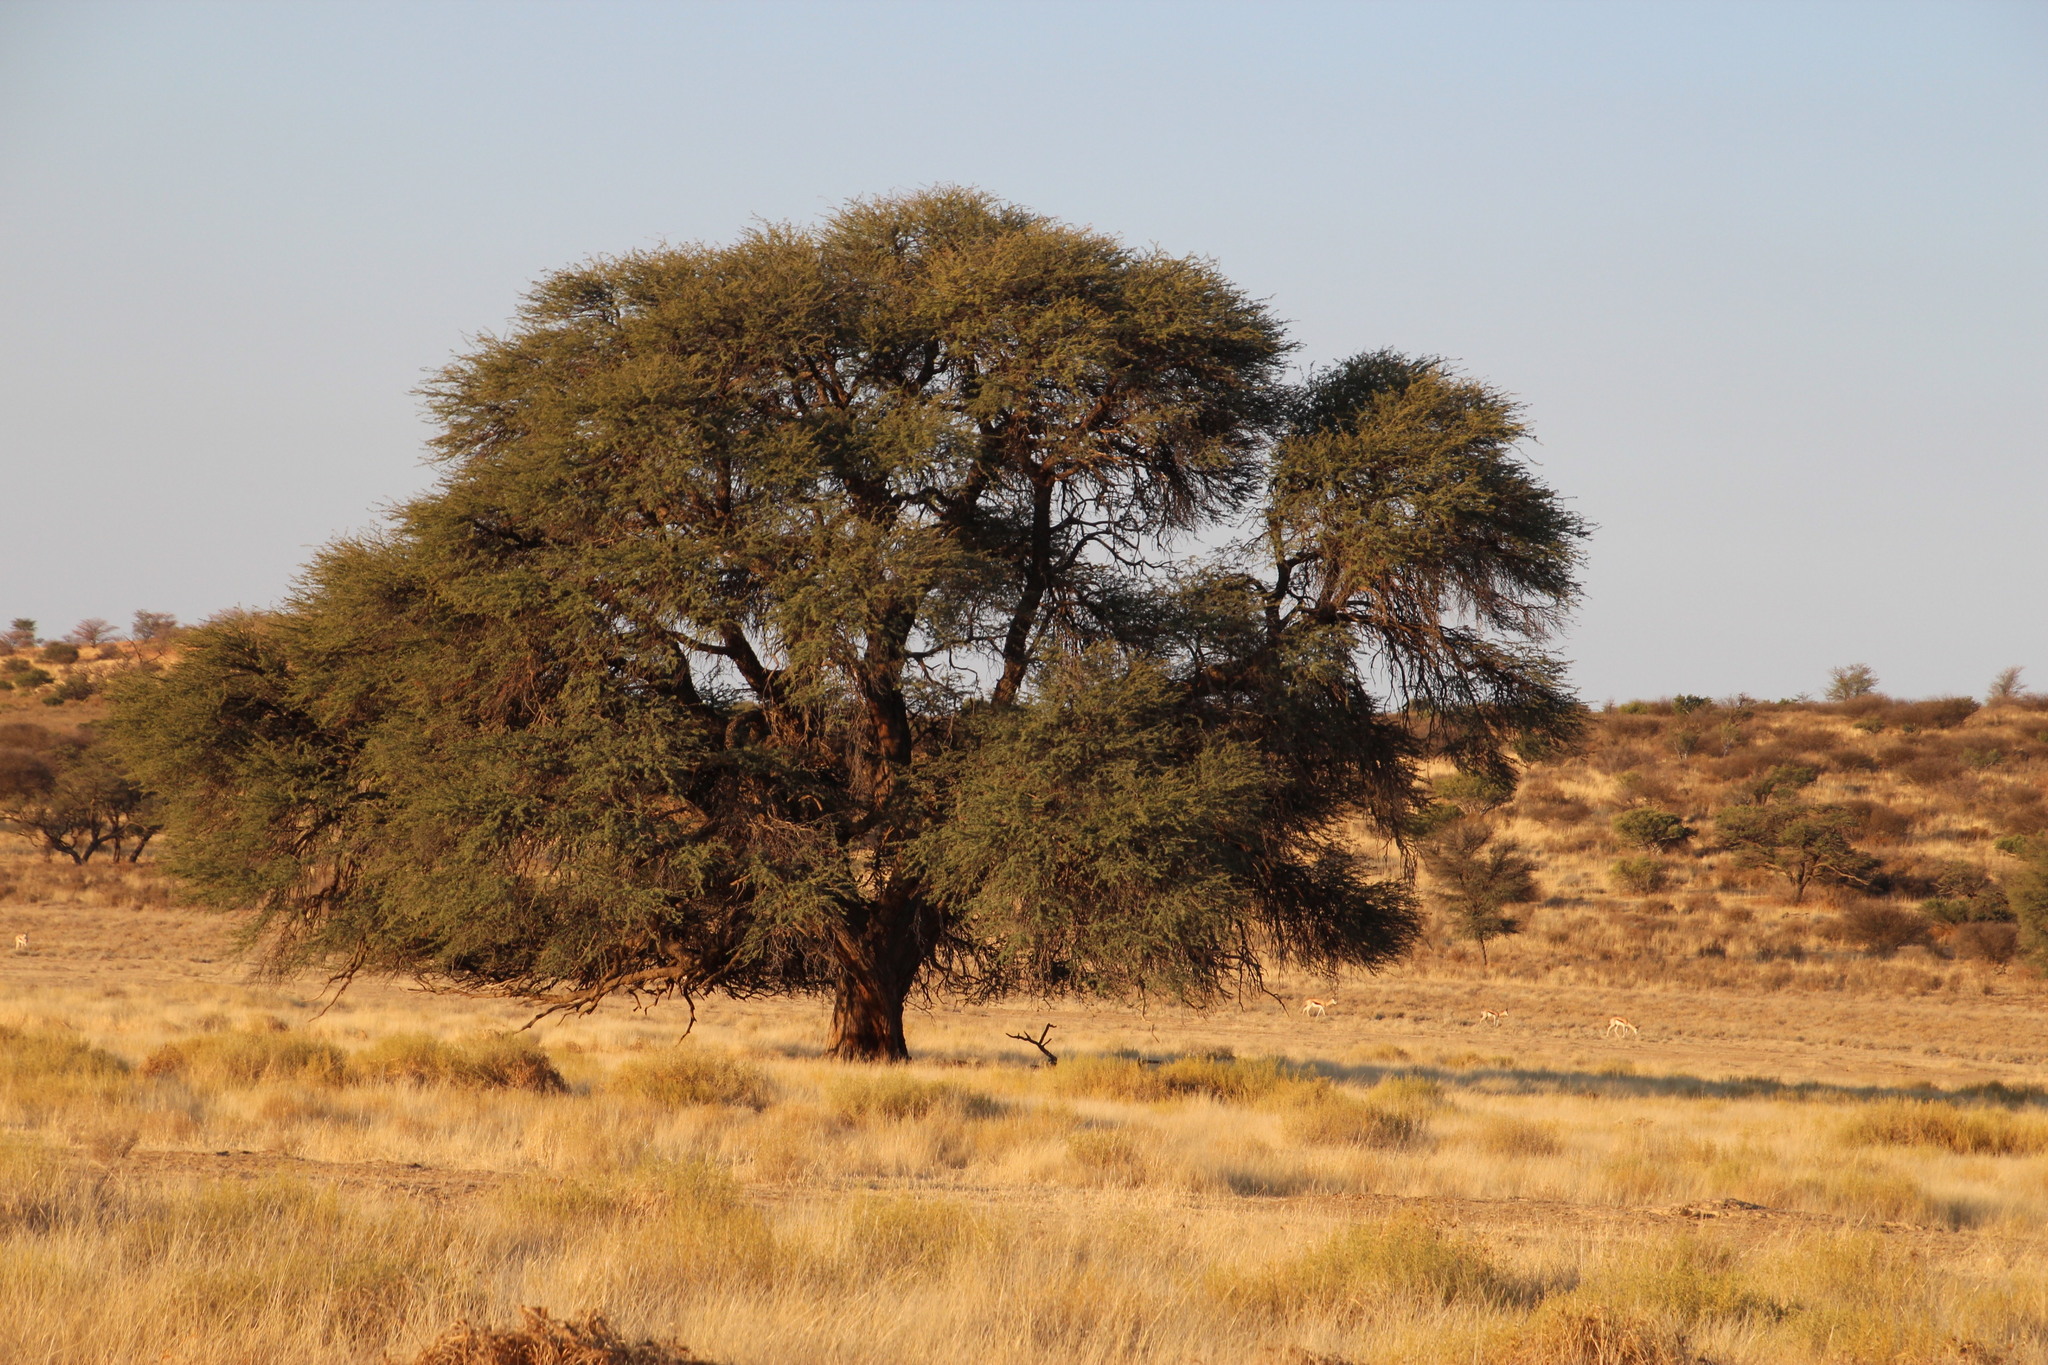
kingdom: Plantae
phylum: Tracheophyta
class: Magnoliopsida
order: Fabales
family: Fabaceae
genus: Vachellia
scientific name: Vachellia erioloba
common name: Camel thorn
